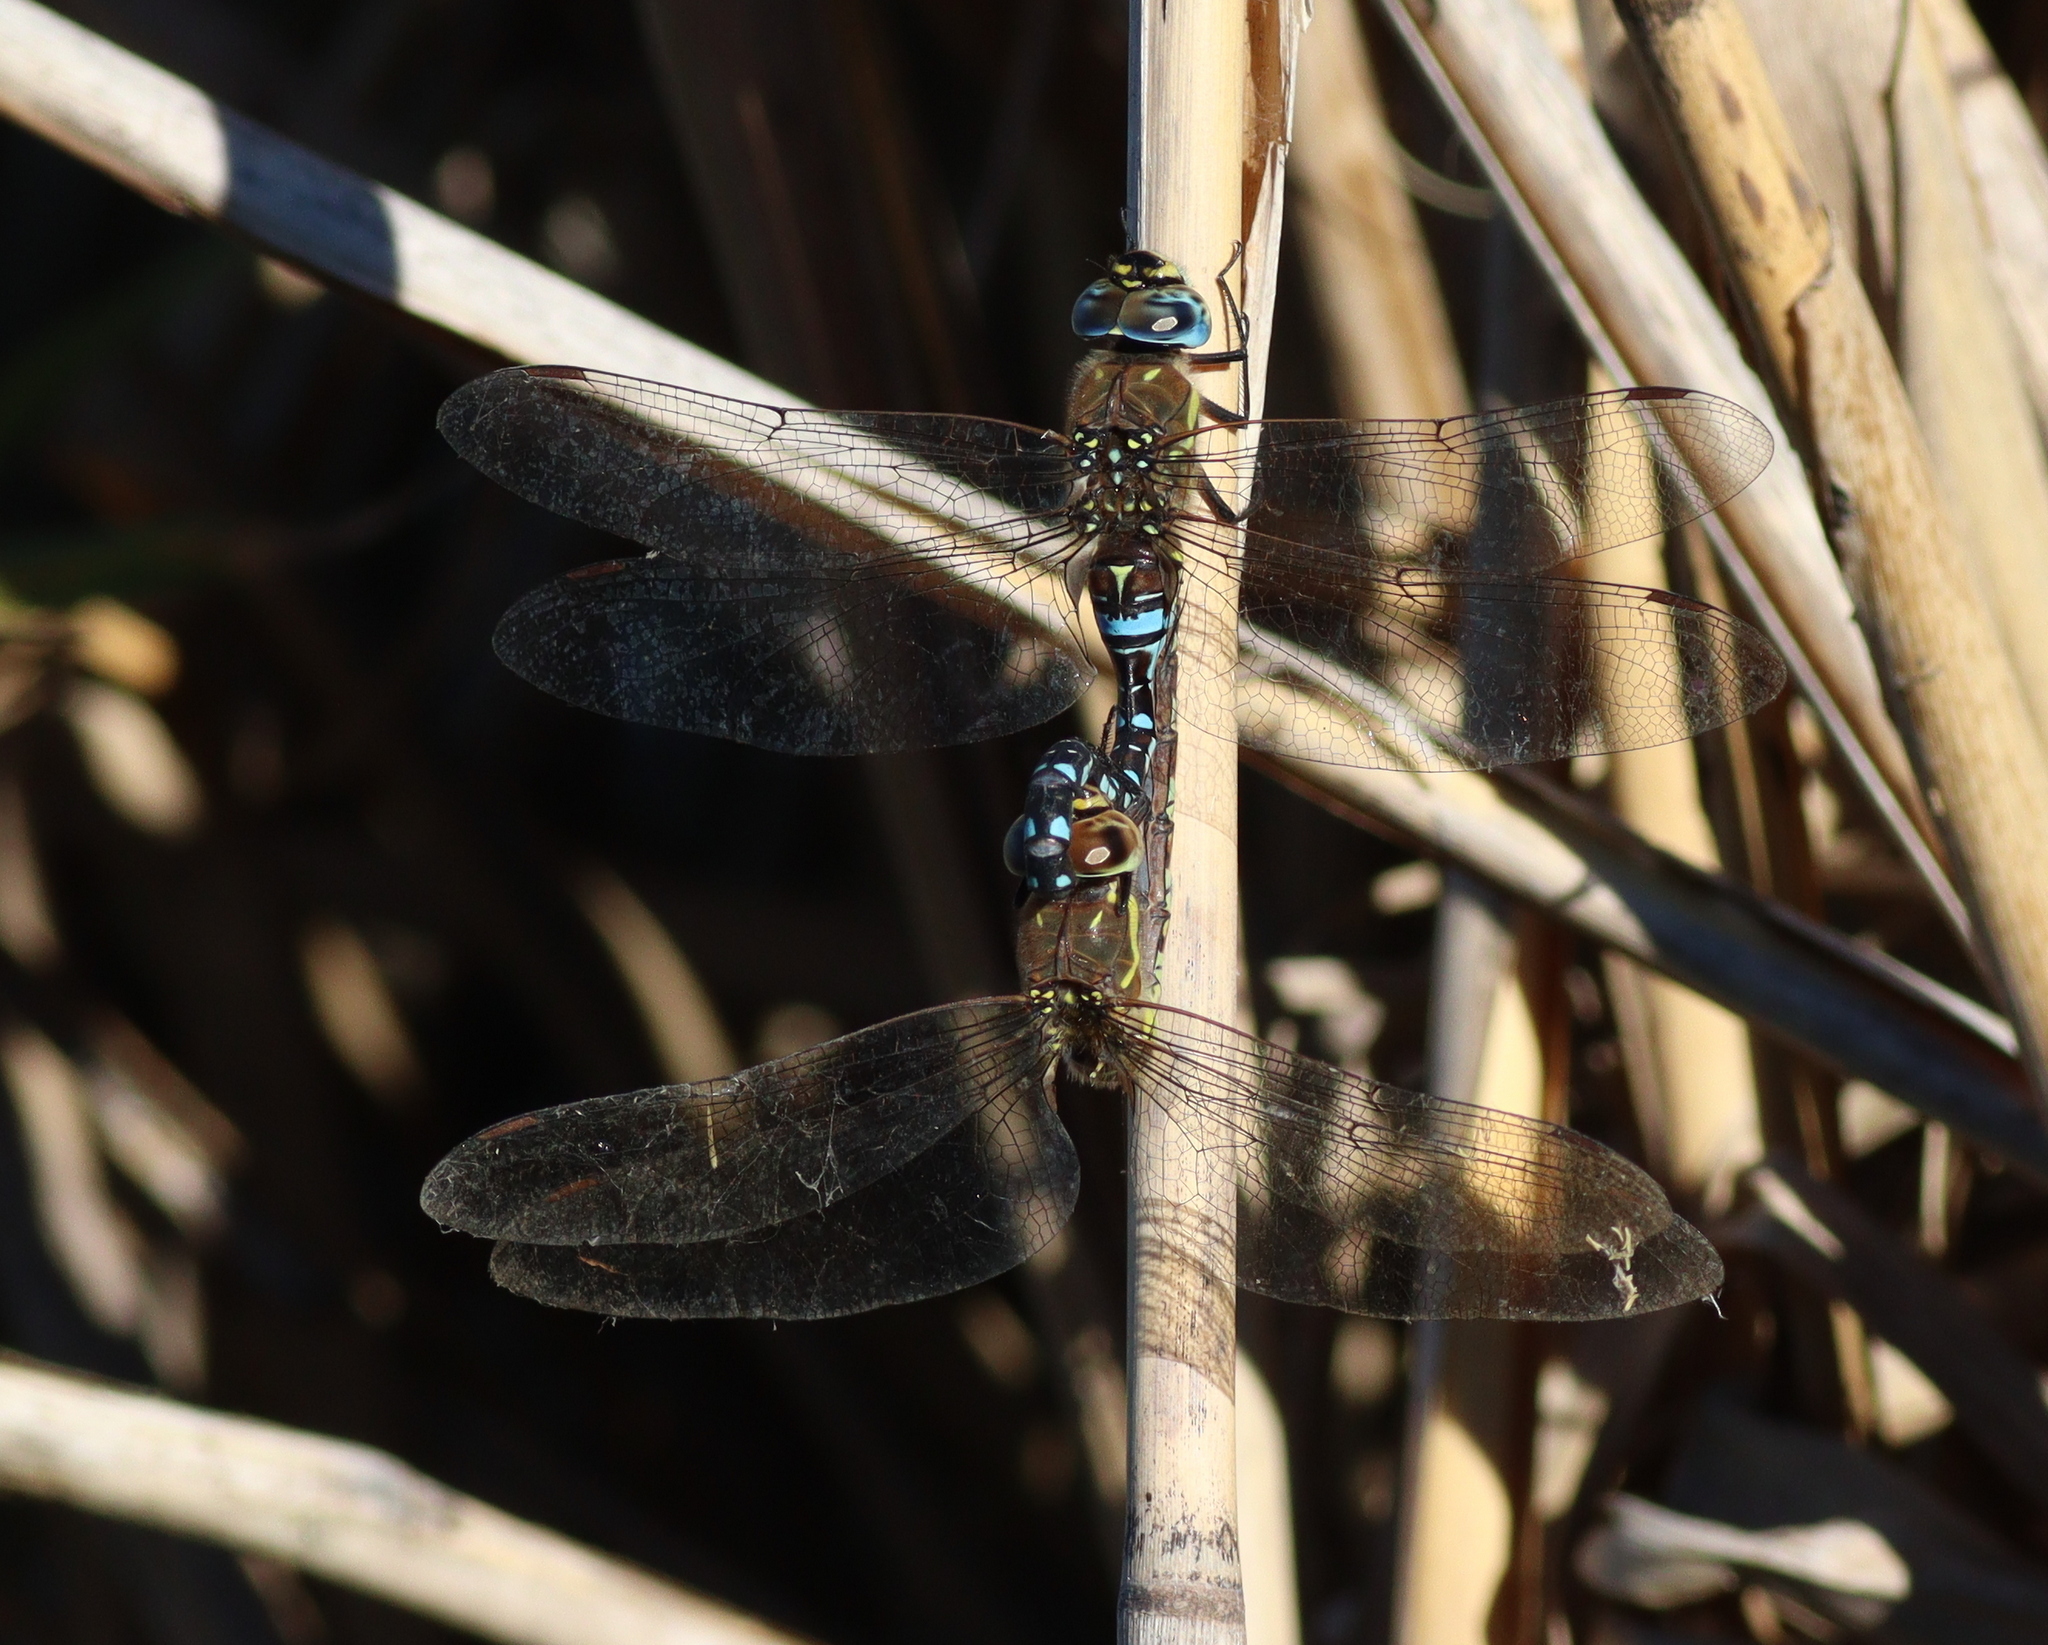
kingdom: Animalia
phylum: Arthropoda
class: Insecta
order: Odonata
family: Aeshnidae
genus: Aeshna
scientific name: Aeshna mixta
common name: Migrant hawker
